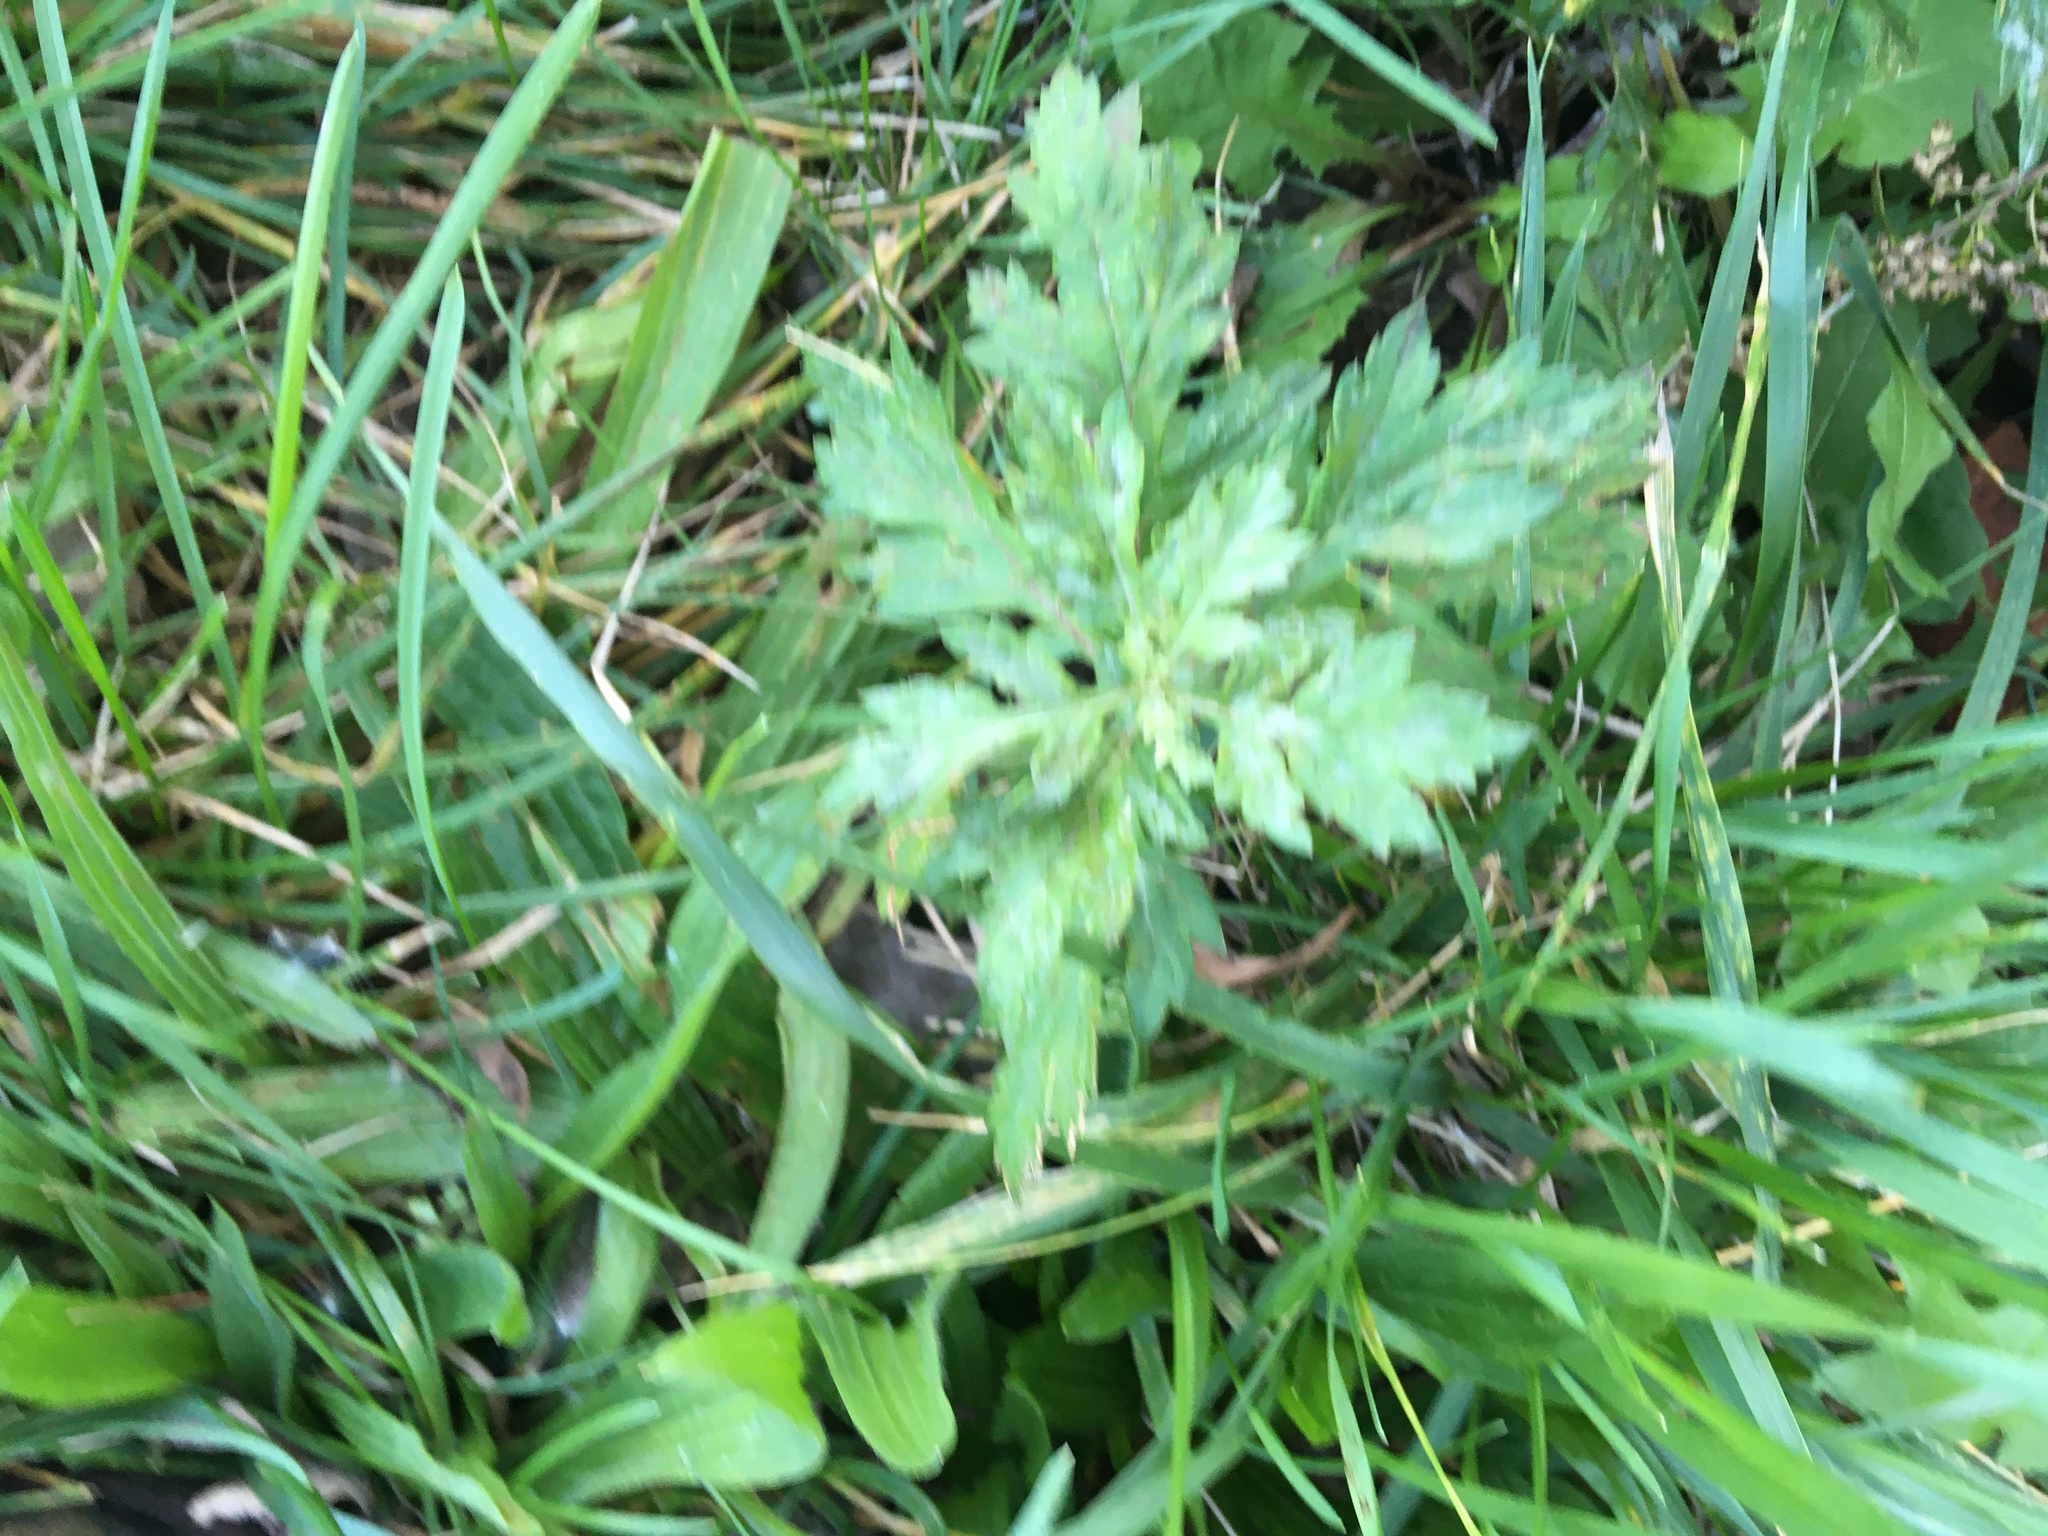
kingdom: Plantae
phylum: Tracheophyta
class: Magnoliopsida
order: Asterales
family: Asteraceae
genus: Artemisia
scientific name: Artemisia vulgaris
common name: Mugwort
